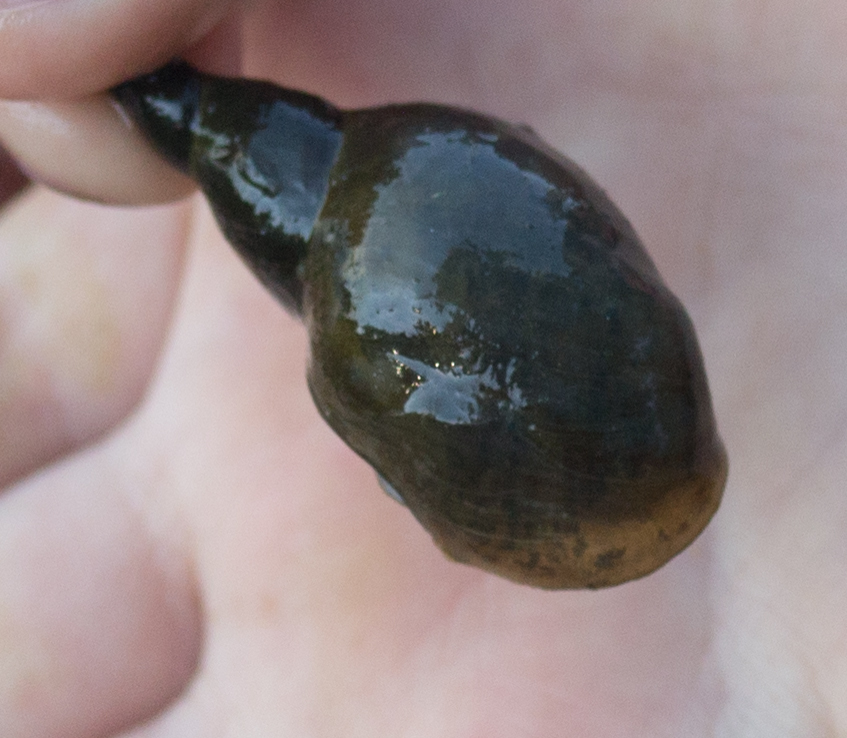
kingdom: Animalia
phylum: Mollusca
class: Gastropoda
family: Lymnaeidae
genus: Lymnaea
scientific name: Lymnaea stagnalis
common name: Great pond snail
